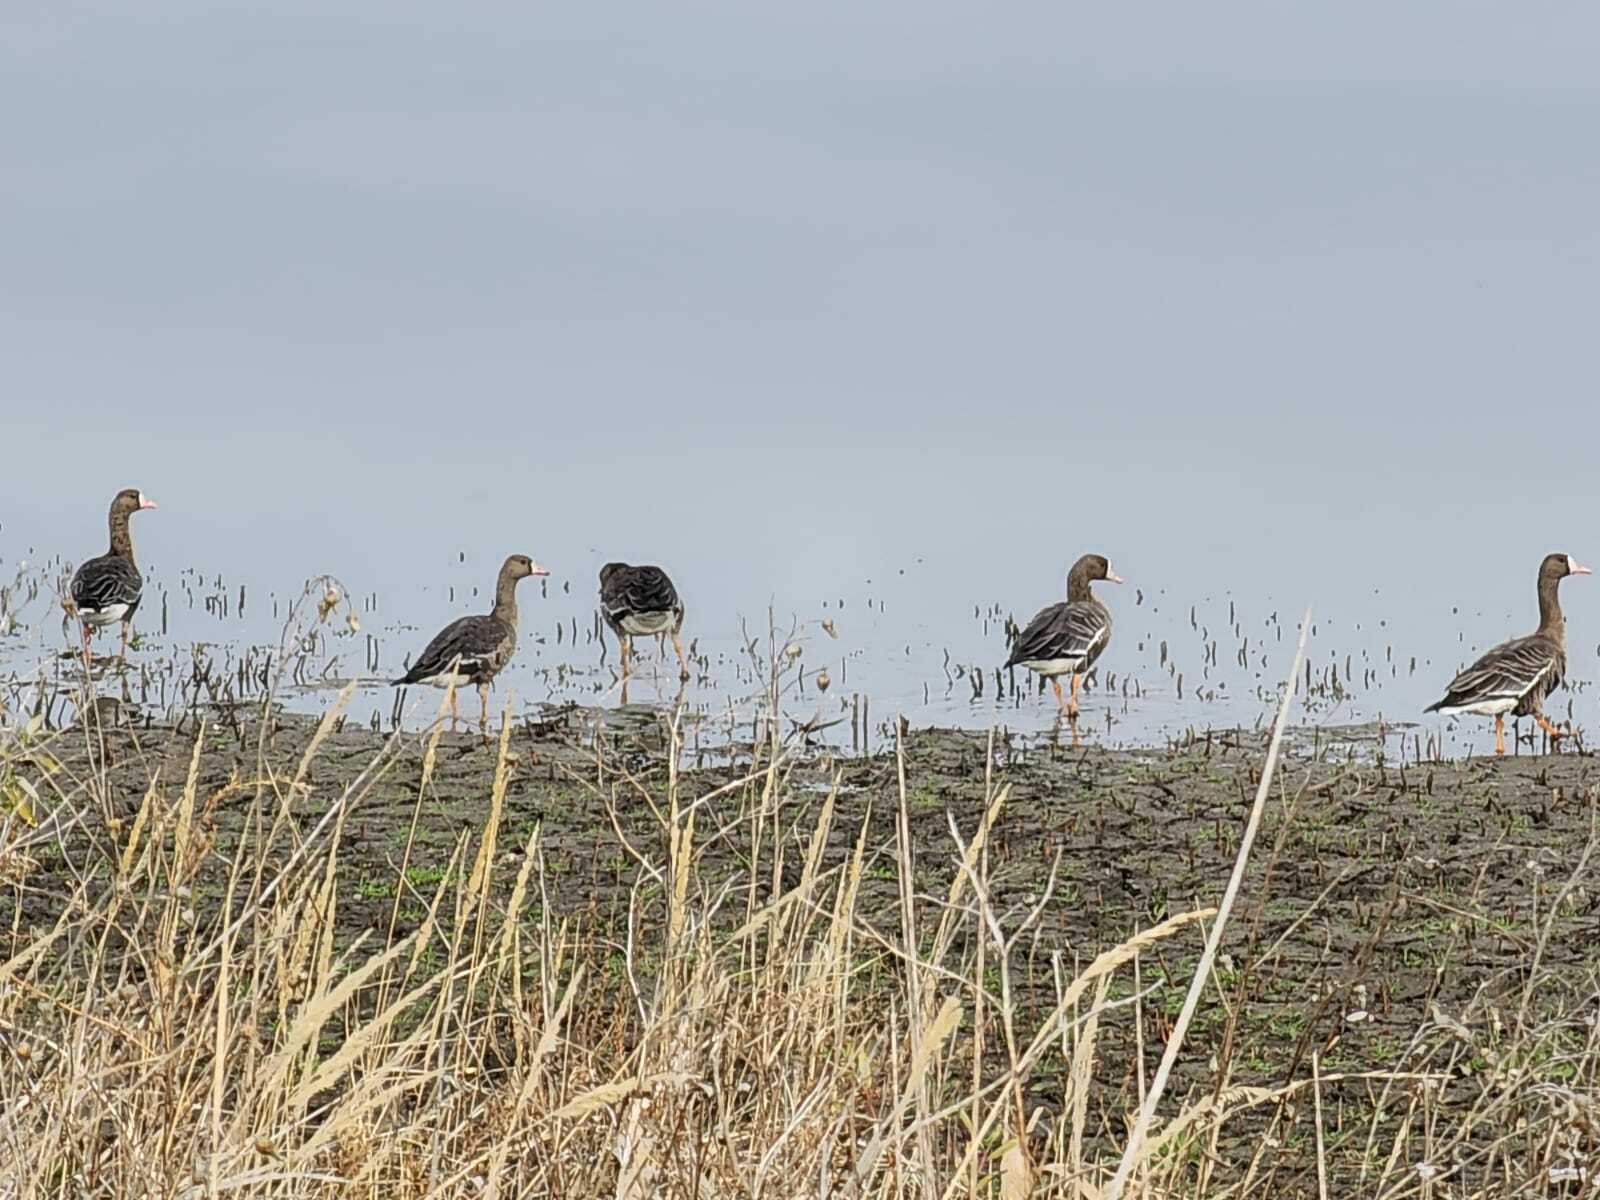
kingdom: Animalia
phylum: Chordata
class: Aves
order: Anseriformes
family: Anatidae
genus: Anser
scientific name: Anser albifrons
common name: Greater white-fronted goose
